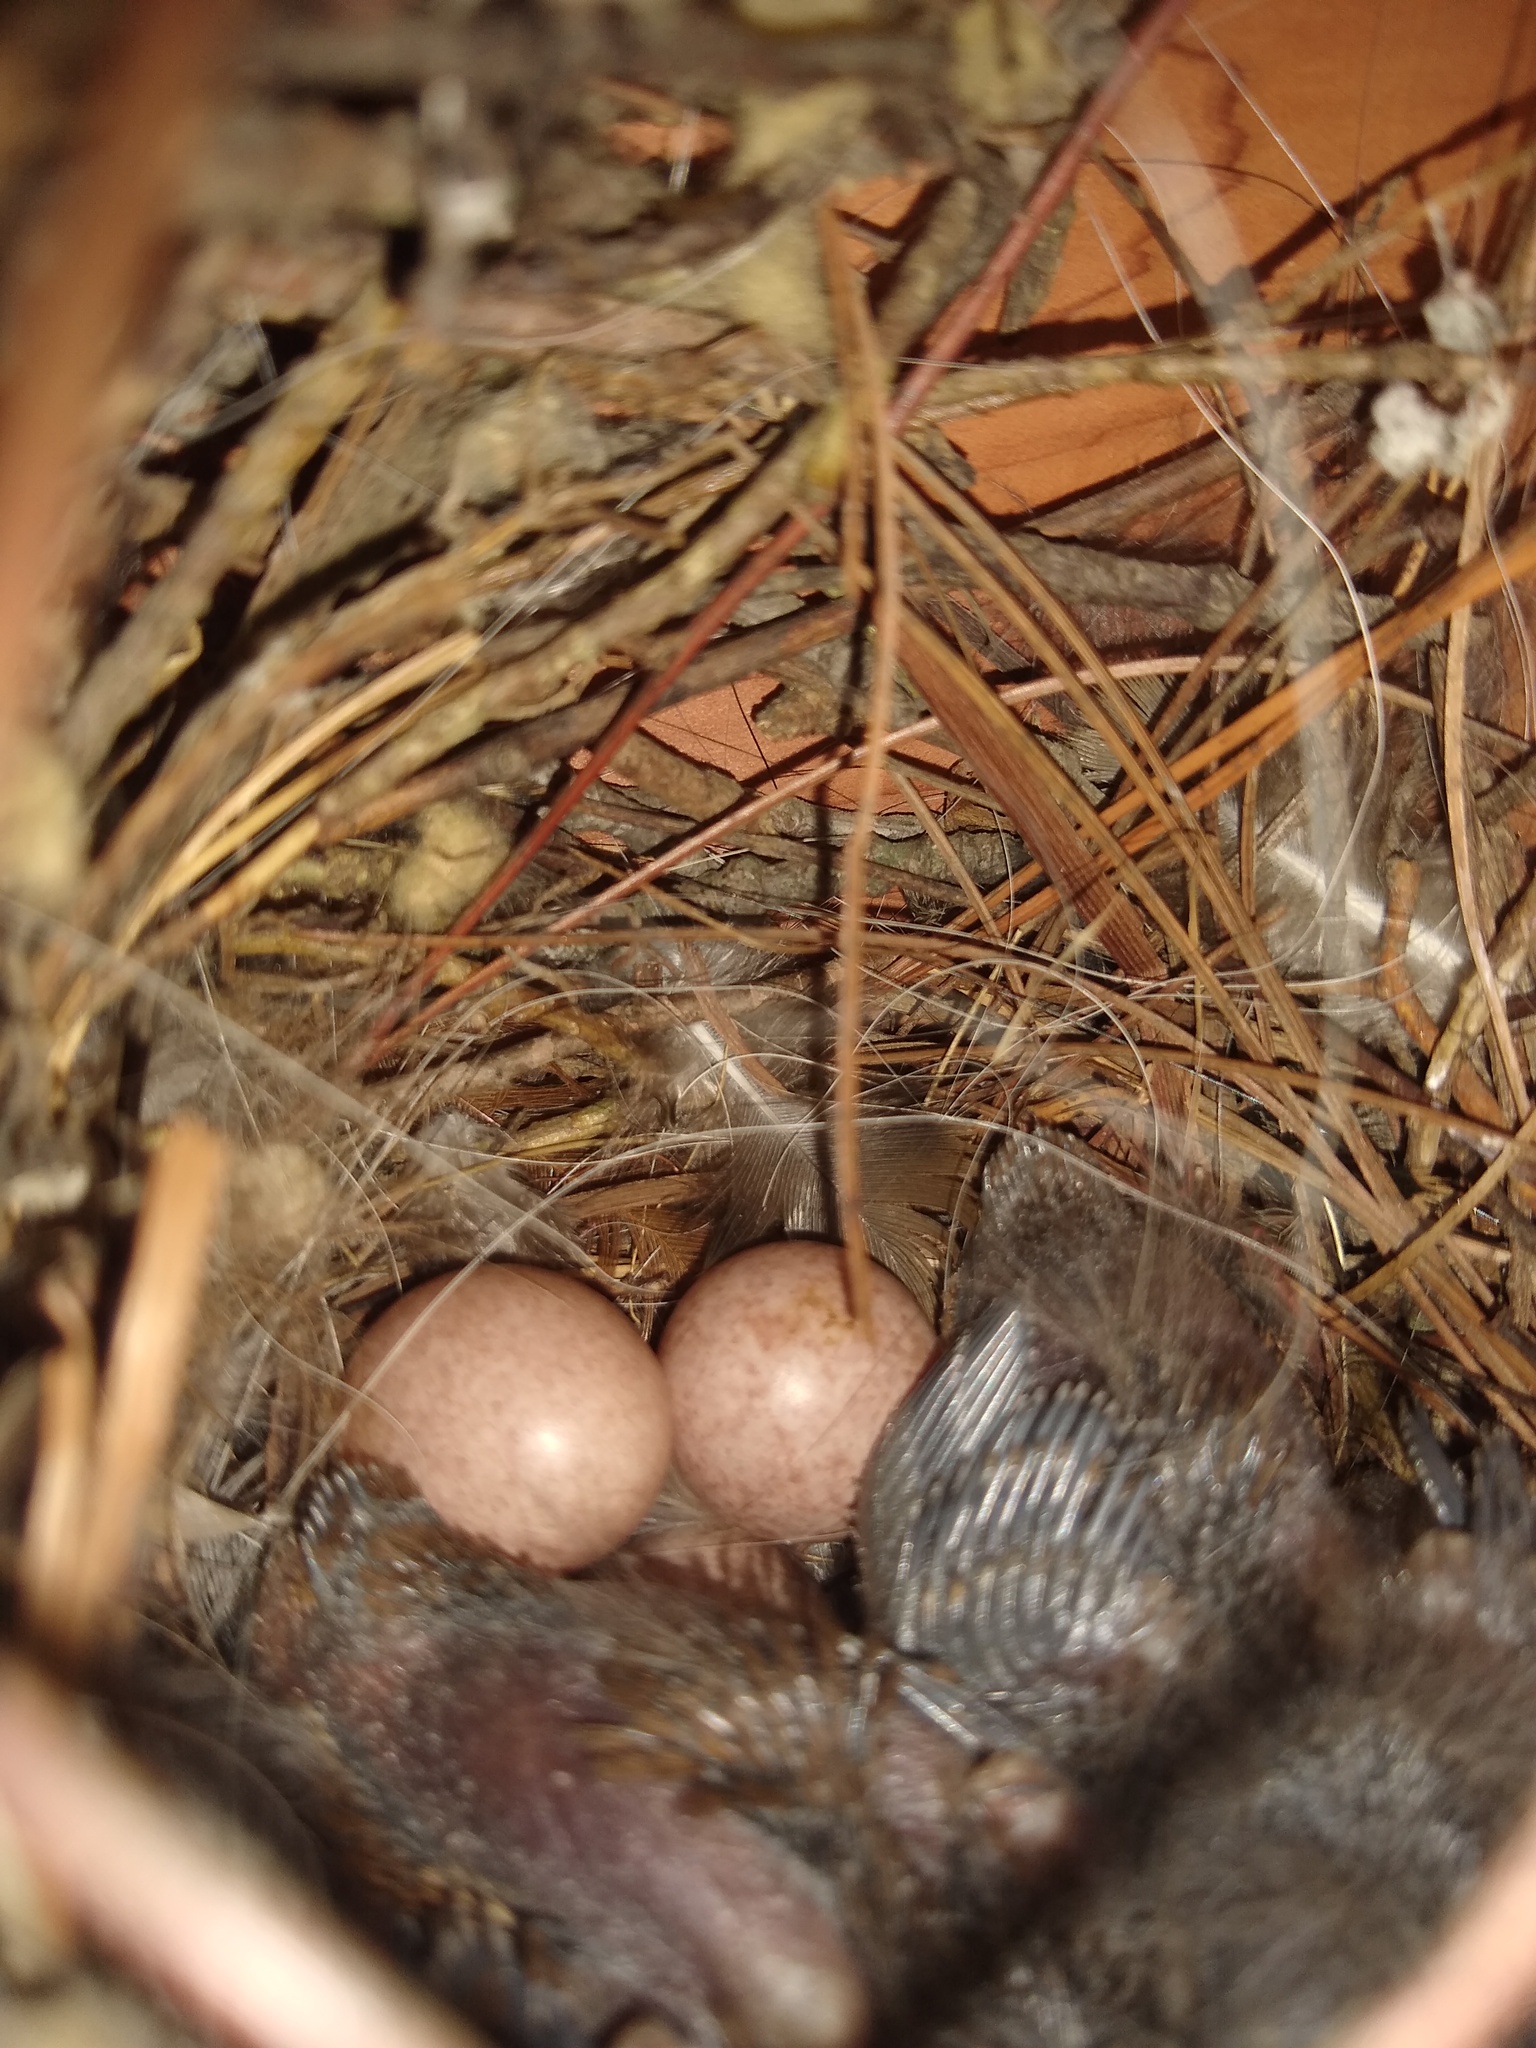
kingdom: Animalia
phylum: Chordata
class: Aves
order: Passeriformes
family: Troglodytidae
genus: Troglodytes
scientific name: Troglodytes aedon
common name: House wren
